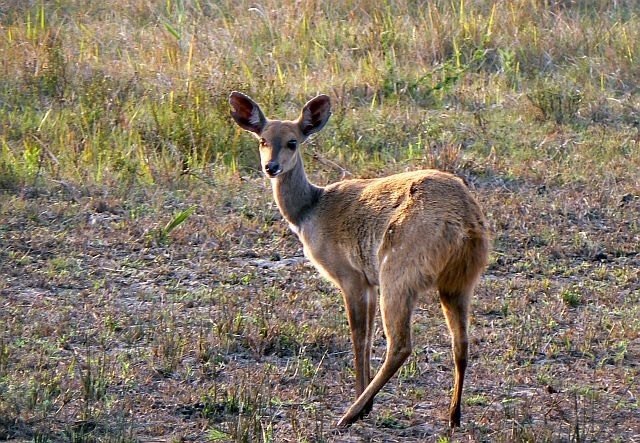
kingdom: Animalia
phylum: Chordata
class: Mammalia
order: Artiodactyla
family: Bovidae
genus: Tragelaphus
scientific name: Tragelaphus scriptus
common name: Bushbuck
